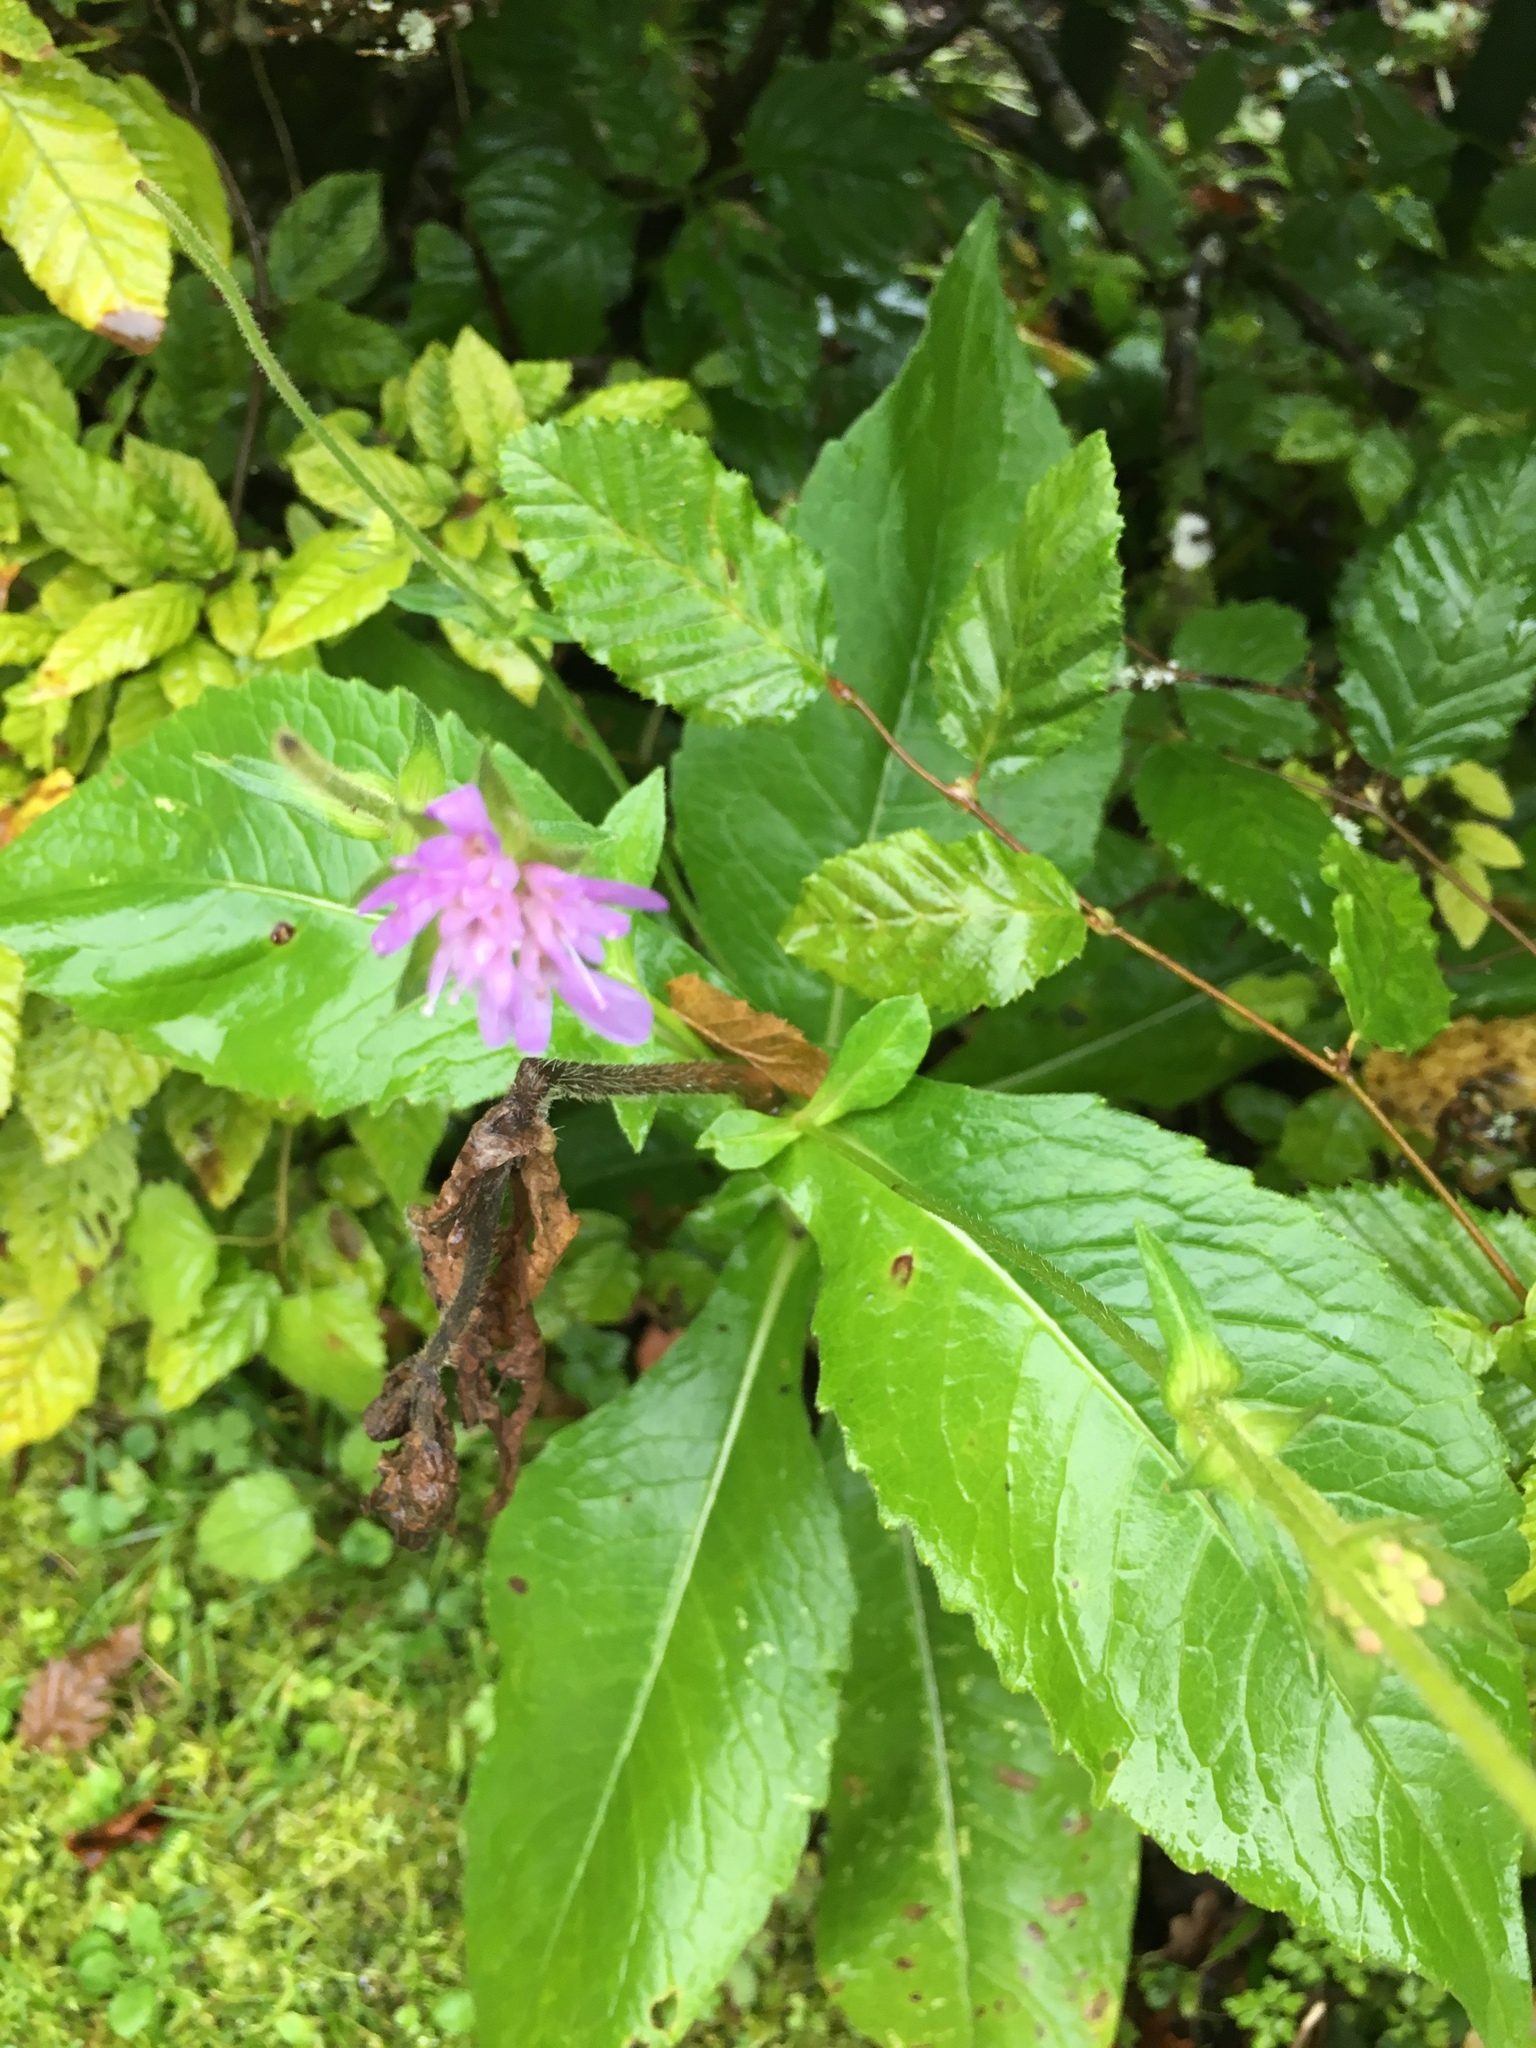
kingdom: Plantae
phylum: Tracheophyta
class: Magnoliopsida
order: Dipsacales
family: Caprifoliaceae
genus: Knautia
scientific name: Knautia dipsacifolia
